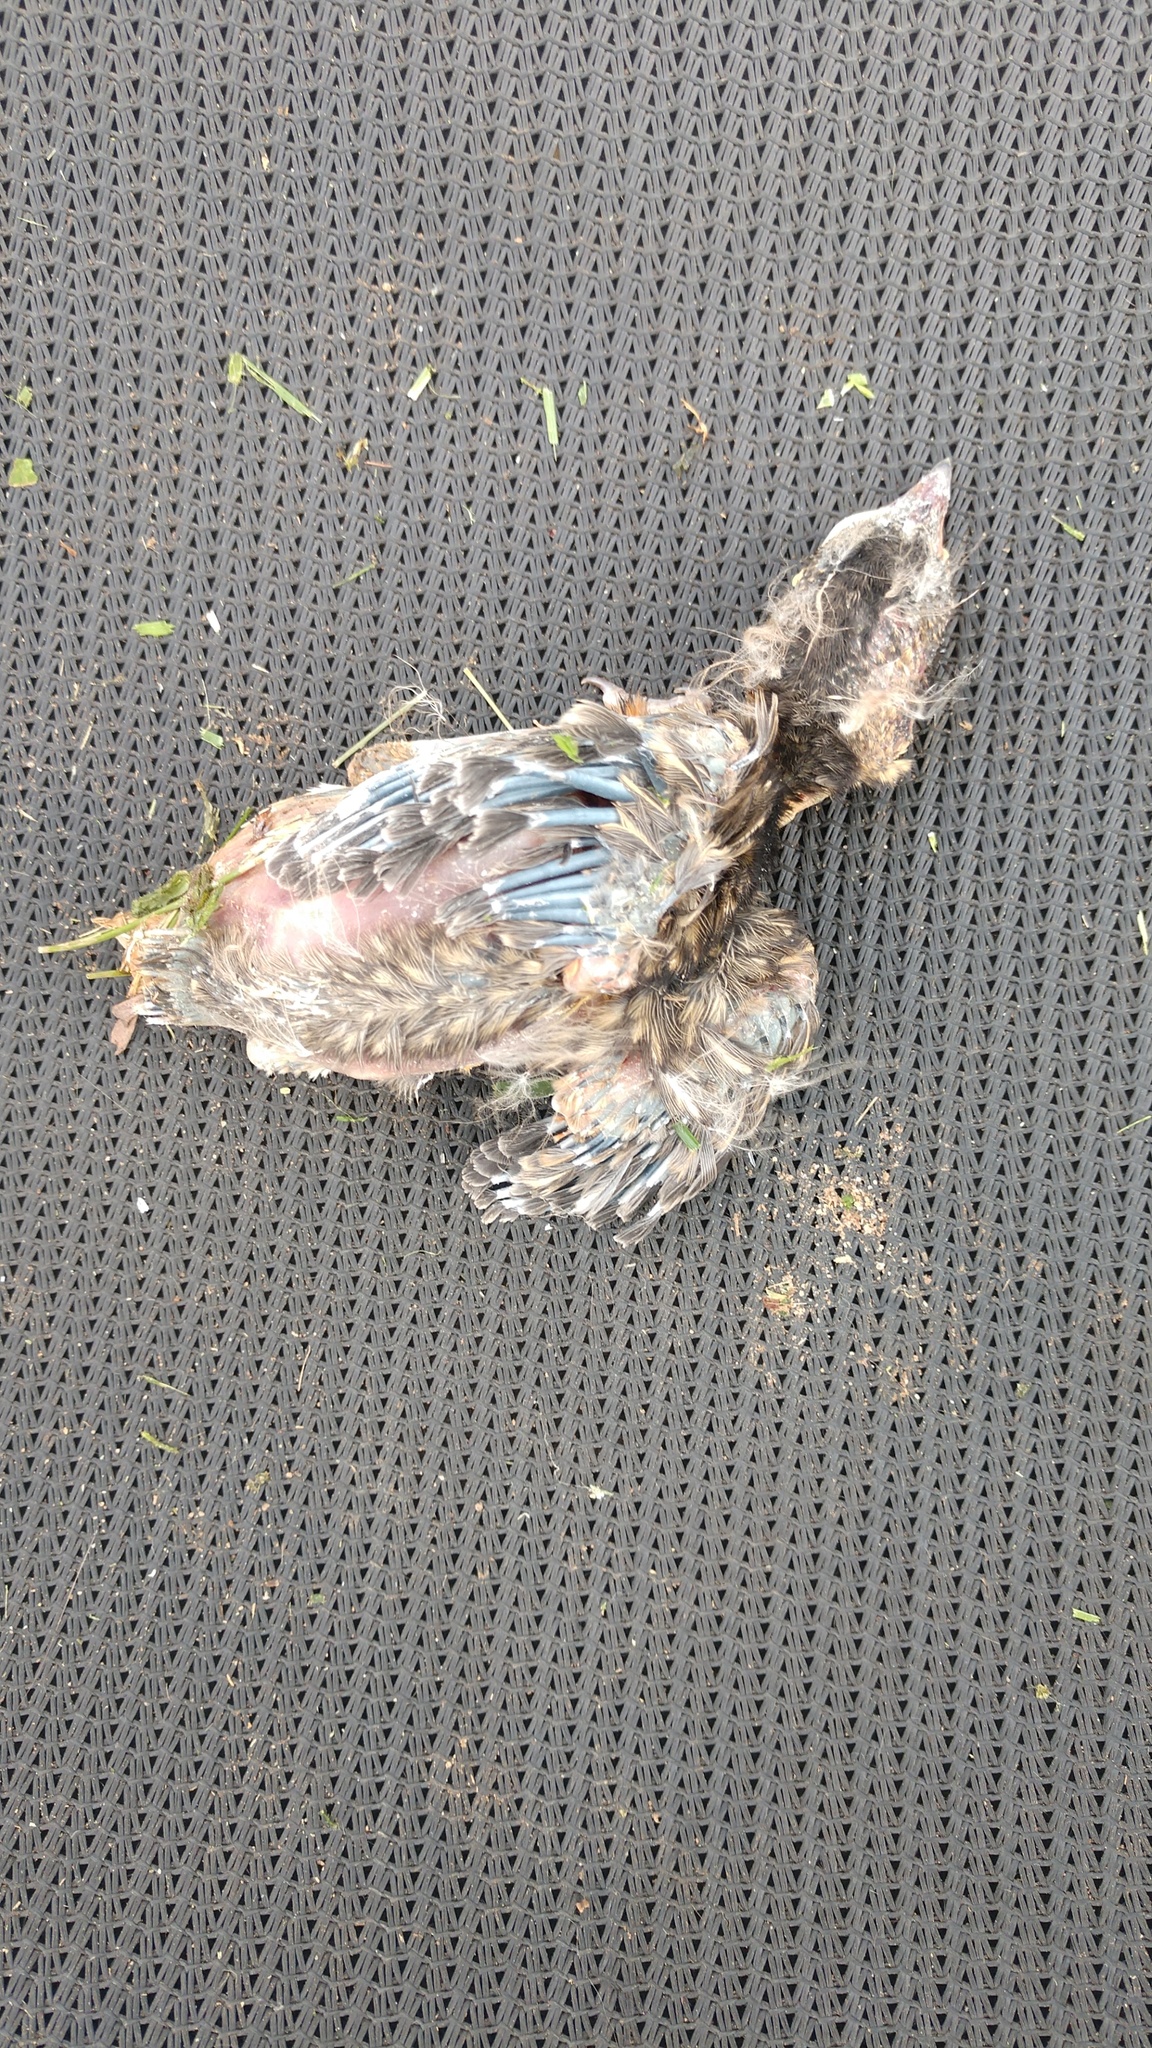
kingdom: Animalia
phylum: Chordata
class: Aves
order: Passeriformes
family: Turdidae
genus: Turdus
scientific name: Turdus migratorius
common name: American robin
